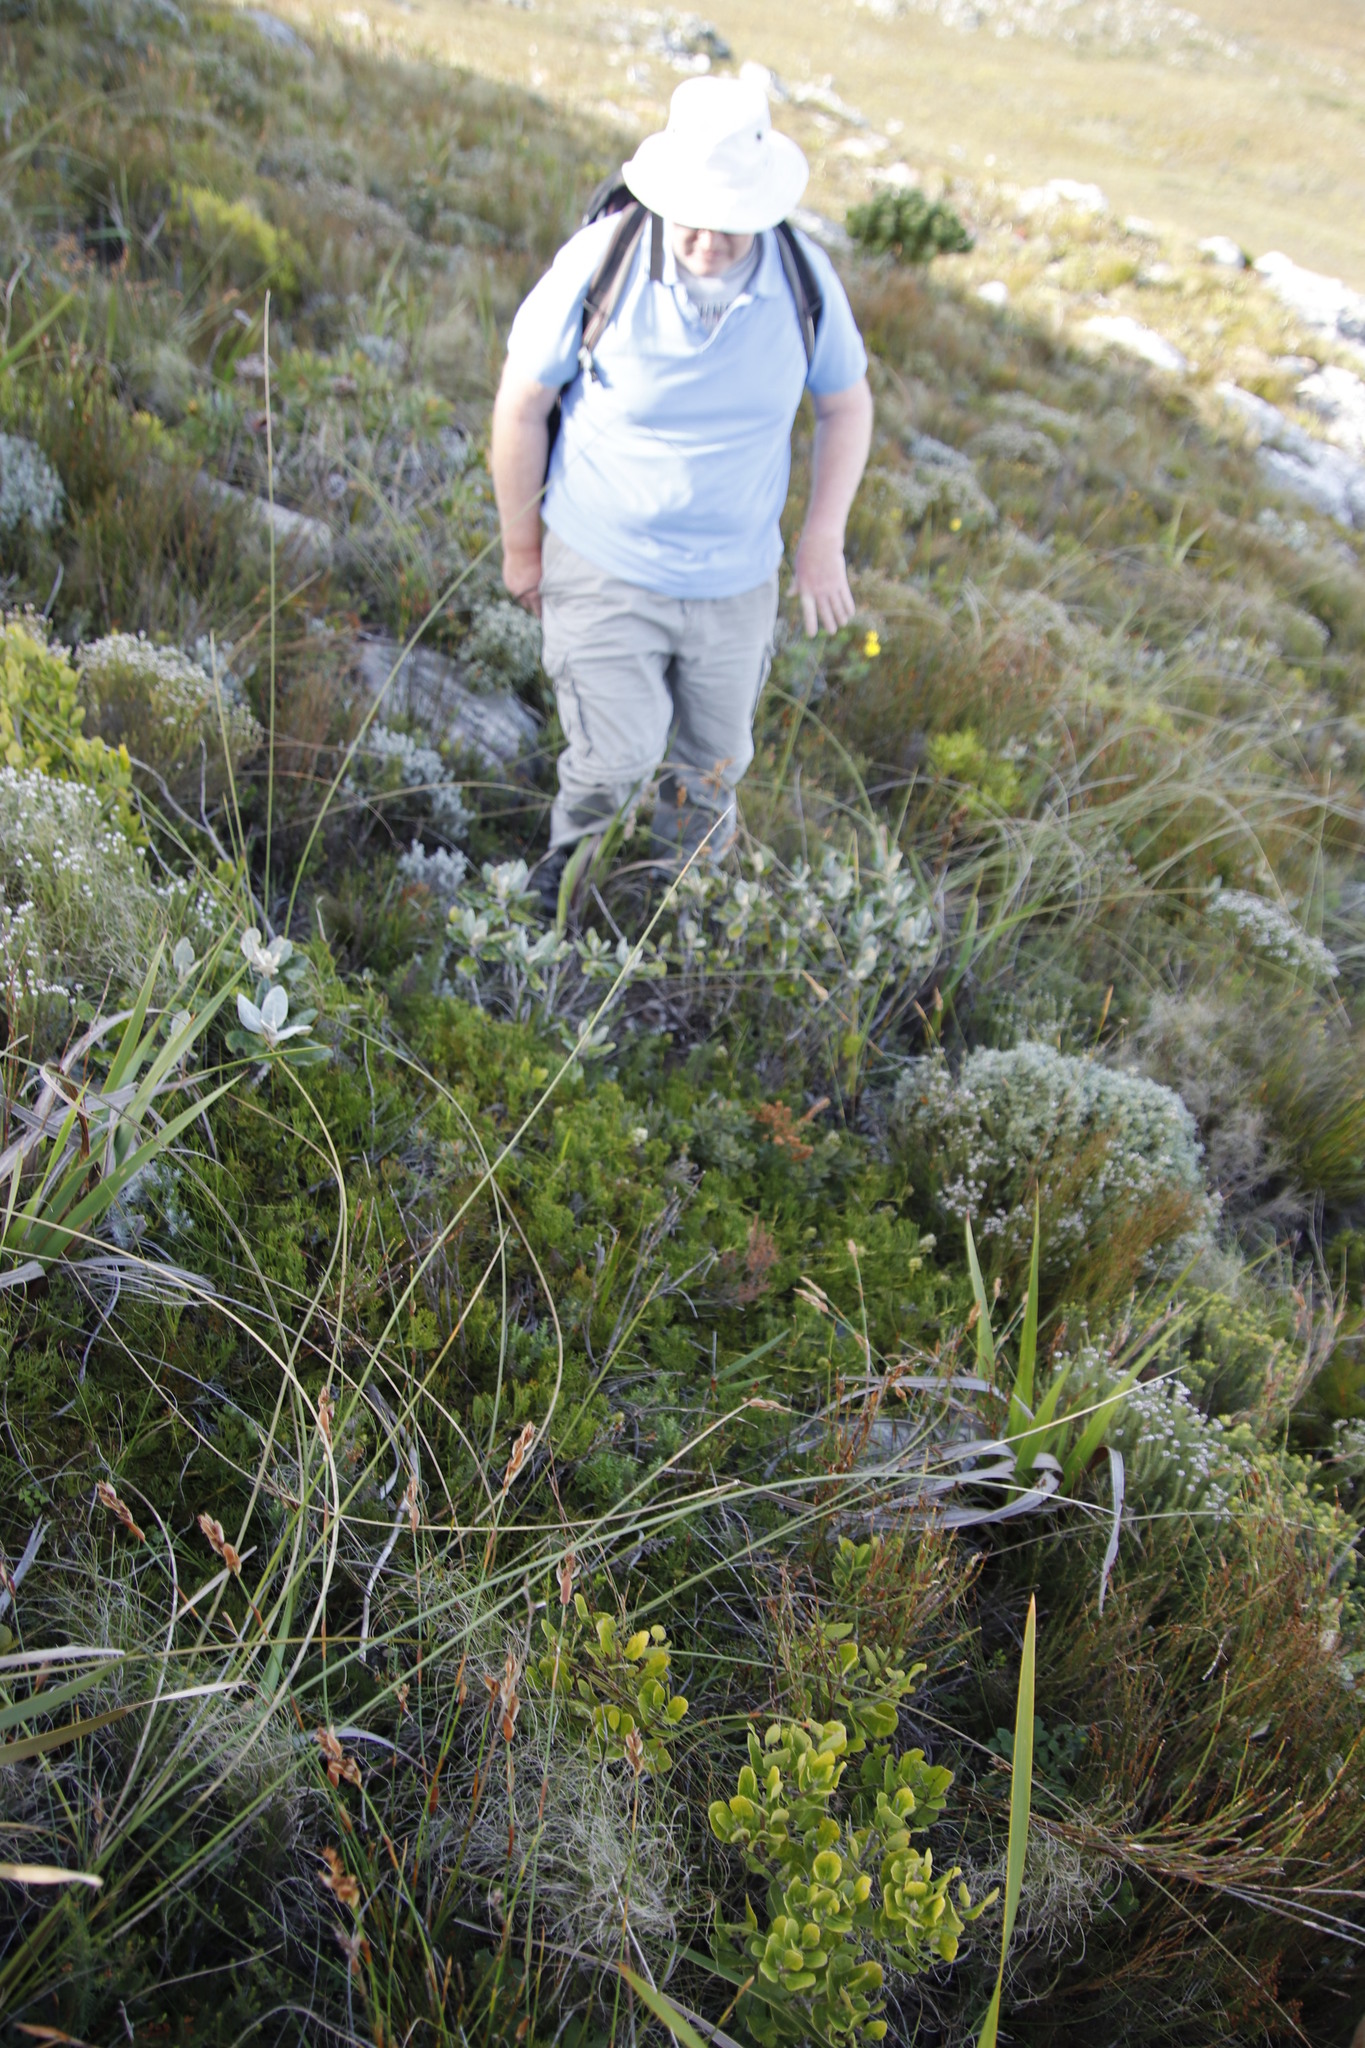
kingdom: Plantae
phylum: Tracheophyta
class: Magnoliopsida
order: Proteales
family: Proteaceae
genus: Serruria
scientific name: Serruria collina
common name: Lost spiderhead
